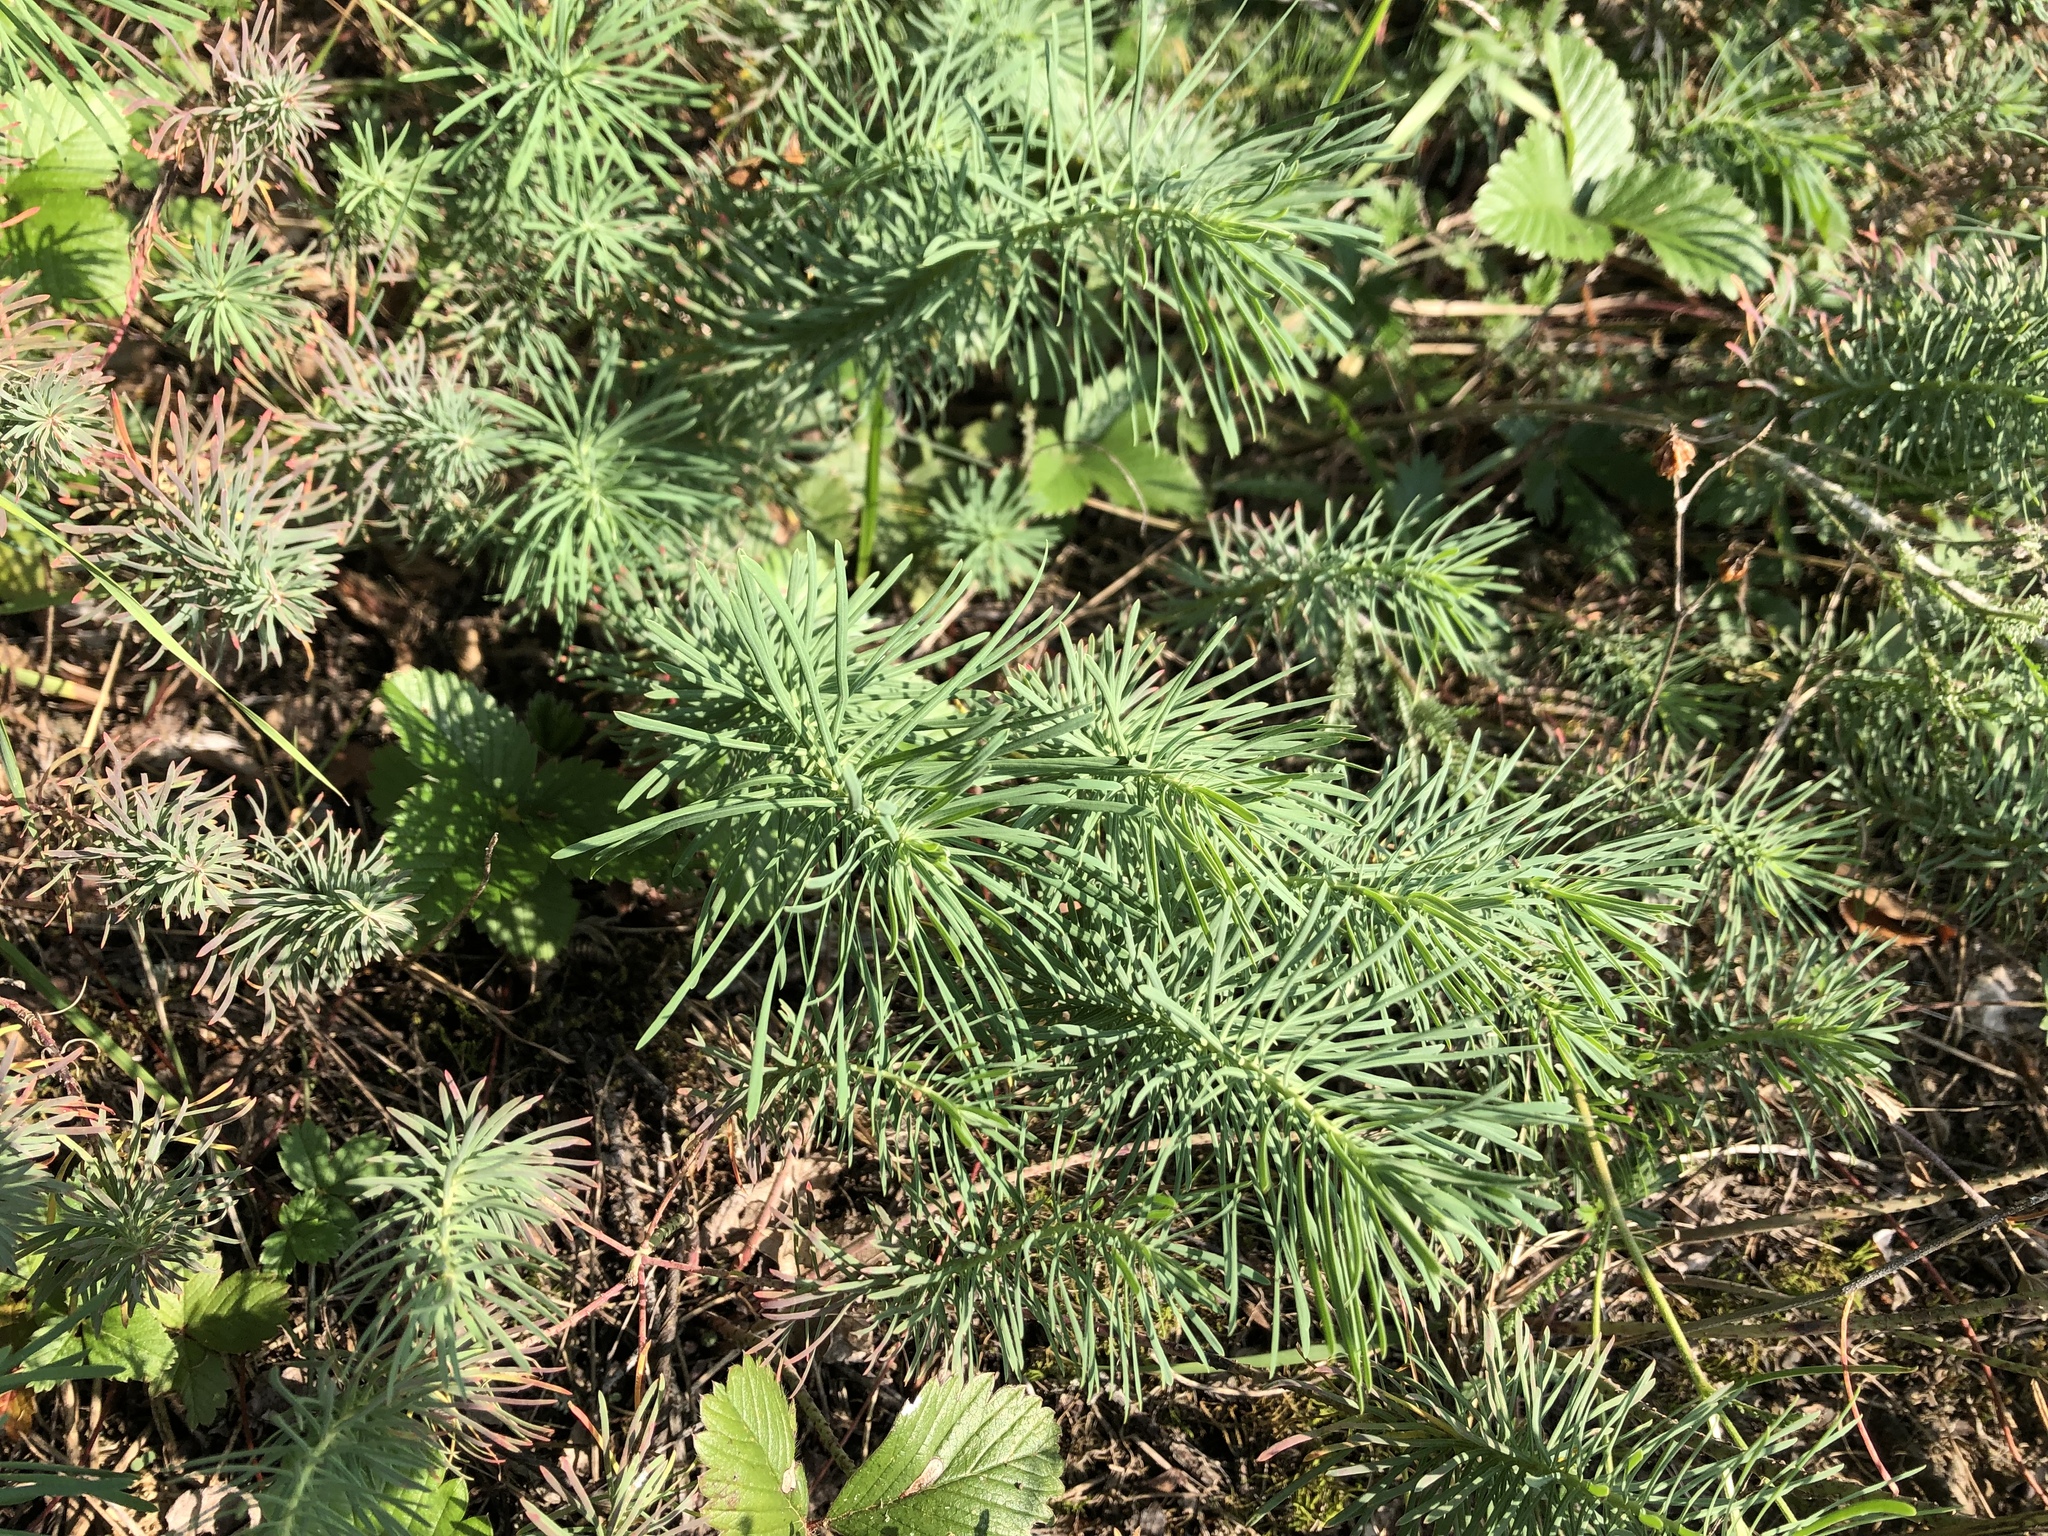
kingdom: Plantae
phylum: Tracheophyta
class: Magnoliopsida
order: Malpighiales
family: Euphorbiaceae
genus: Euphorbia
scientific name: Euphorbia cyparissias
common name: Cypress spurge
